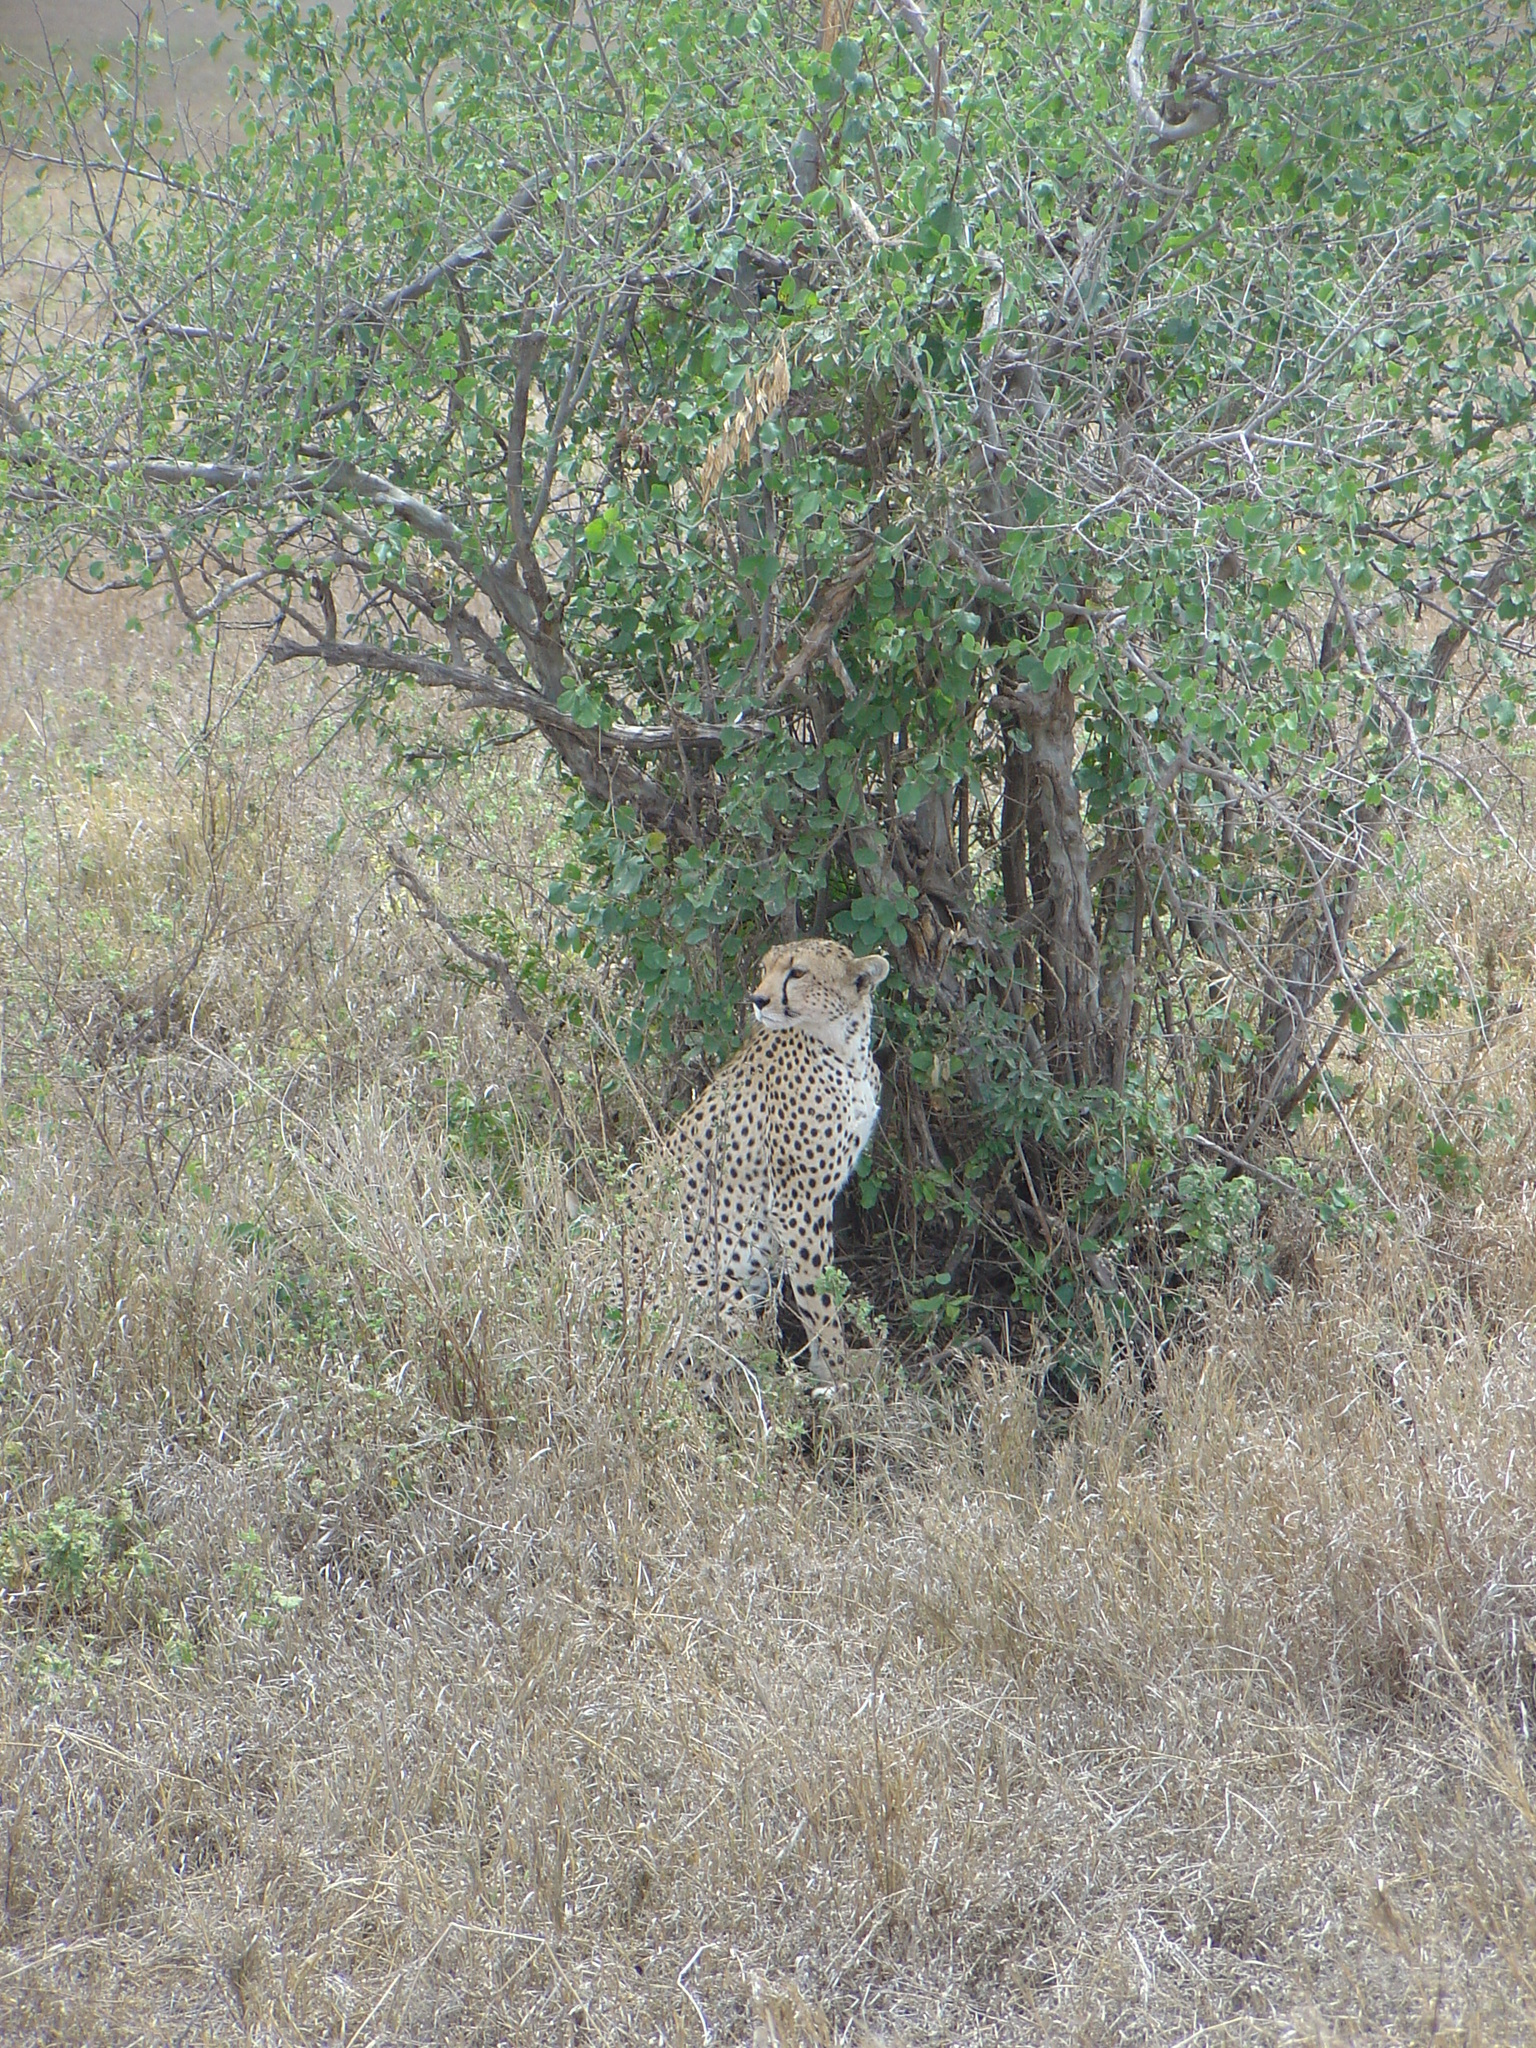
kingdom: Animalia
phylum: Chordata
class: Mammalia
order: Carnivora
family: Felidae
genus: Acinonyx
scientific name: Acinonyx jubatus
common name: Cheetah
